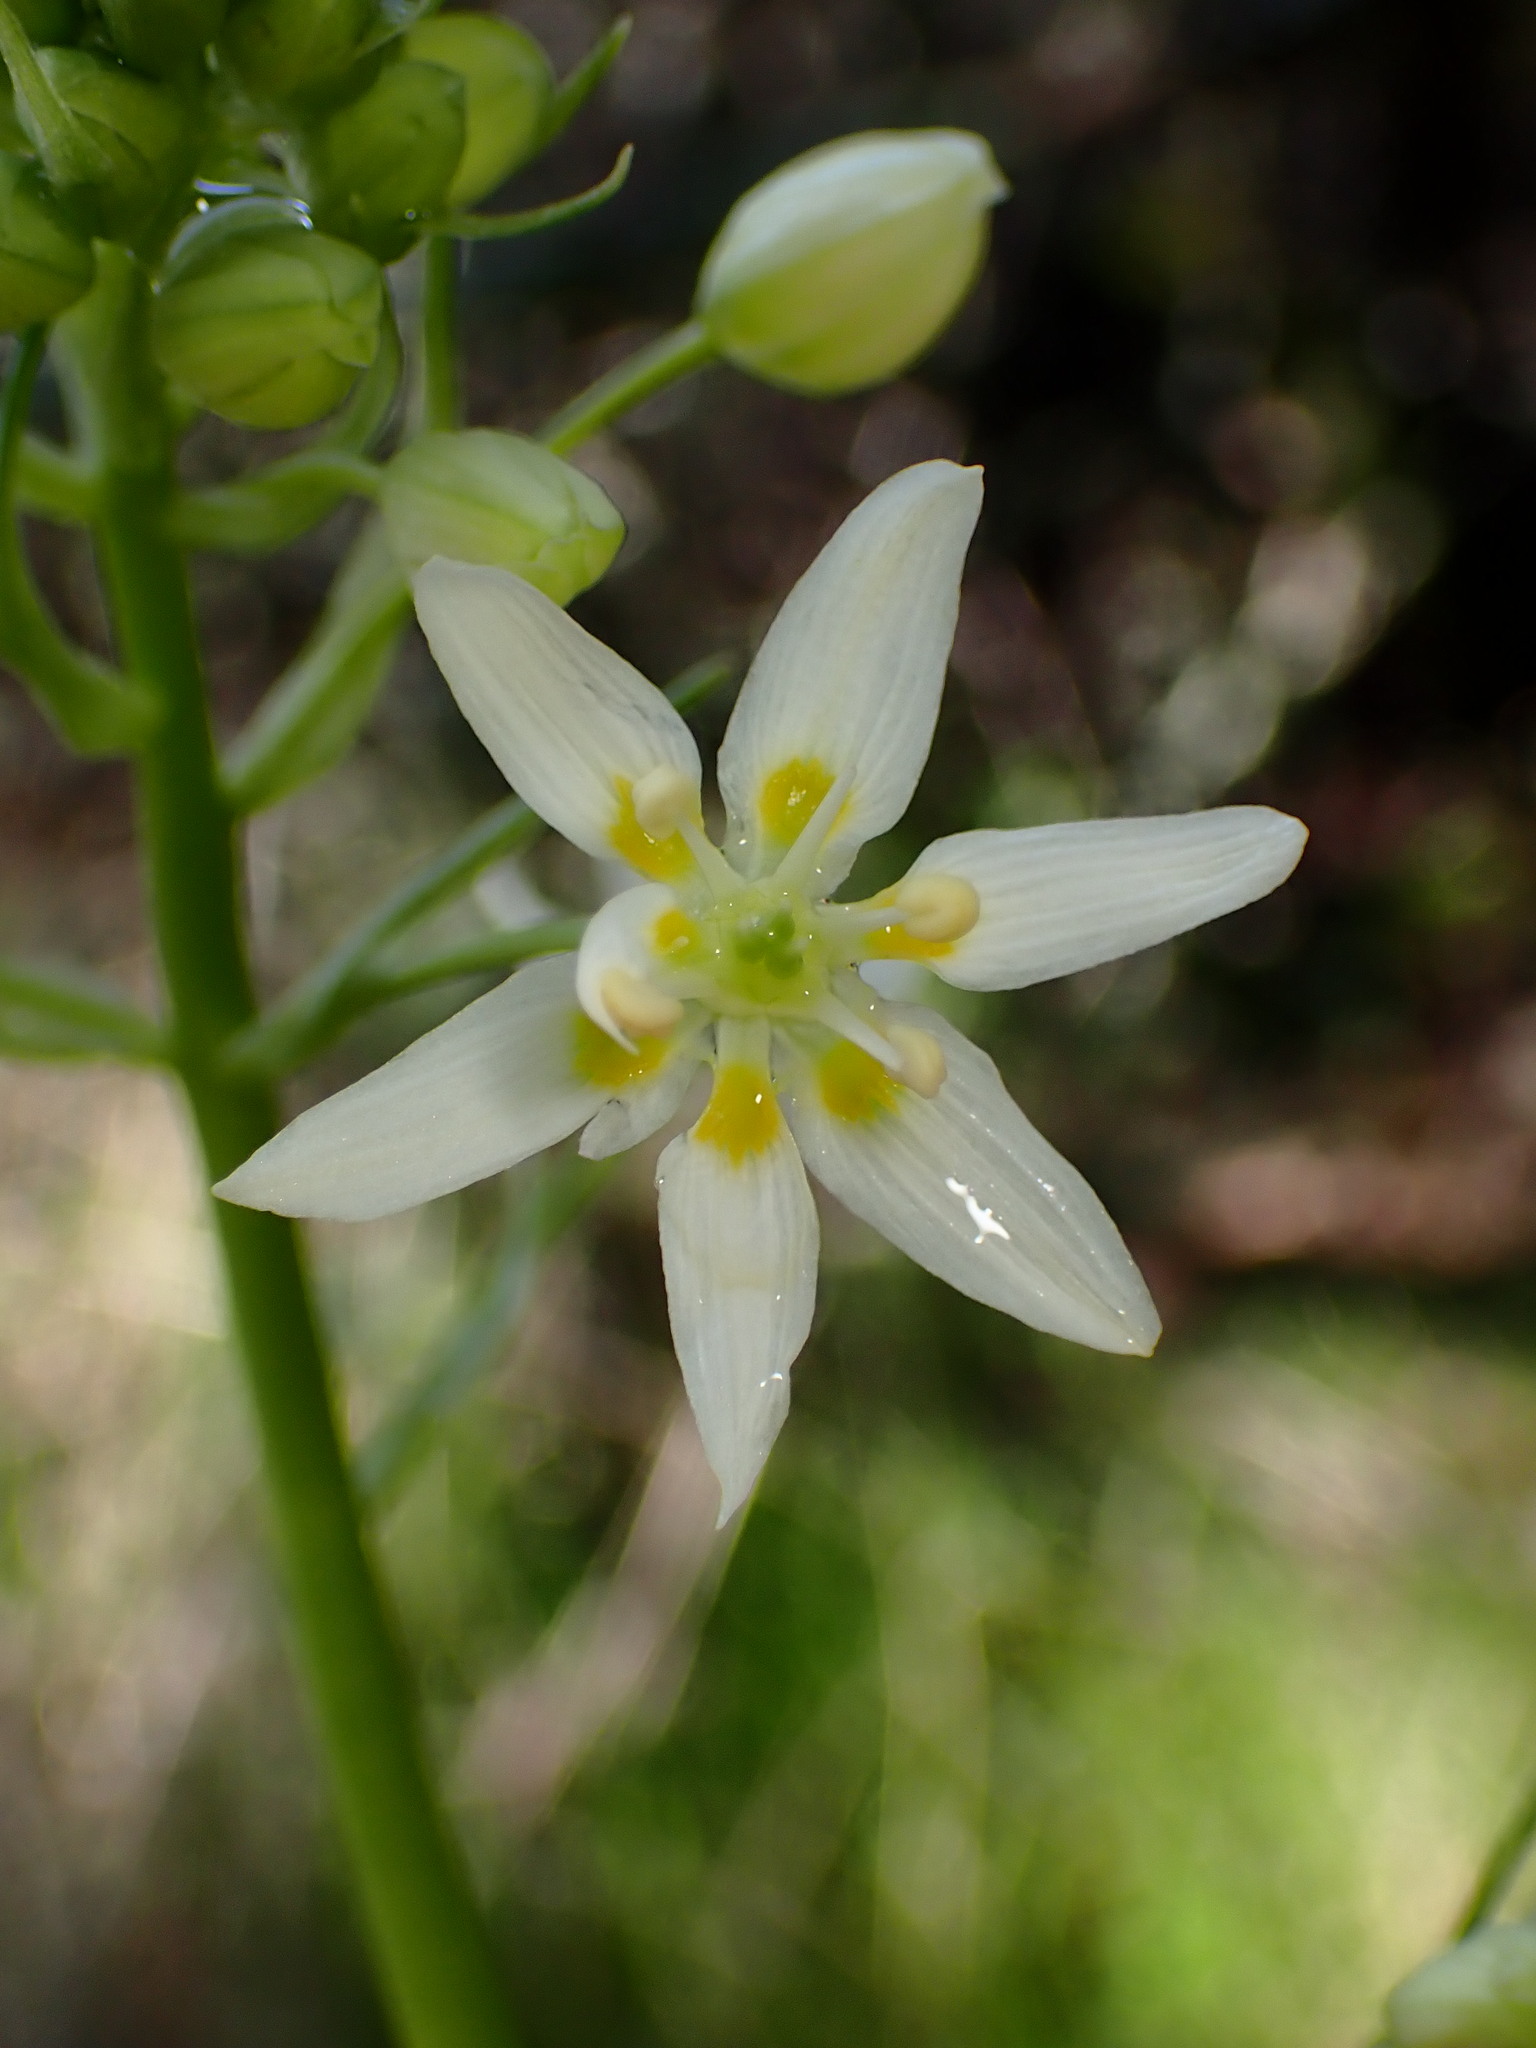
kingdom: Plantae
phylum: Tracheophyta
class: Liliopsida
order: Liliales
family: Melanthiaceae
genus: Toxicoscordion
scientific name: Toxicoscordion fremontii
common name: Fremont's death camas
